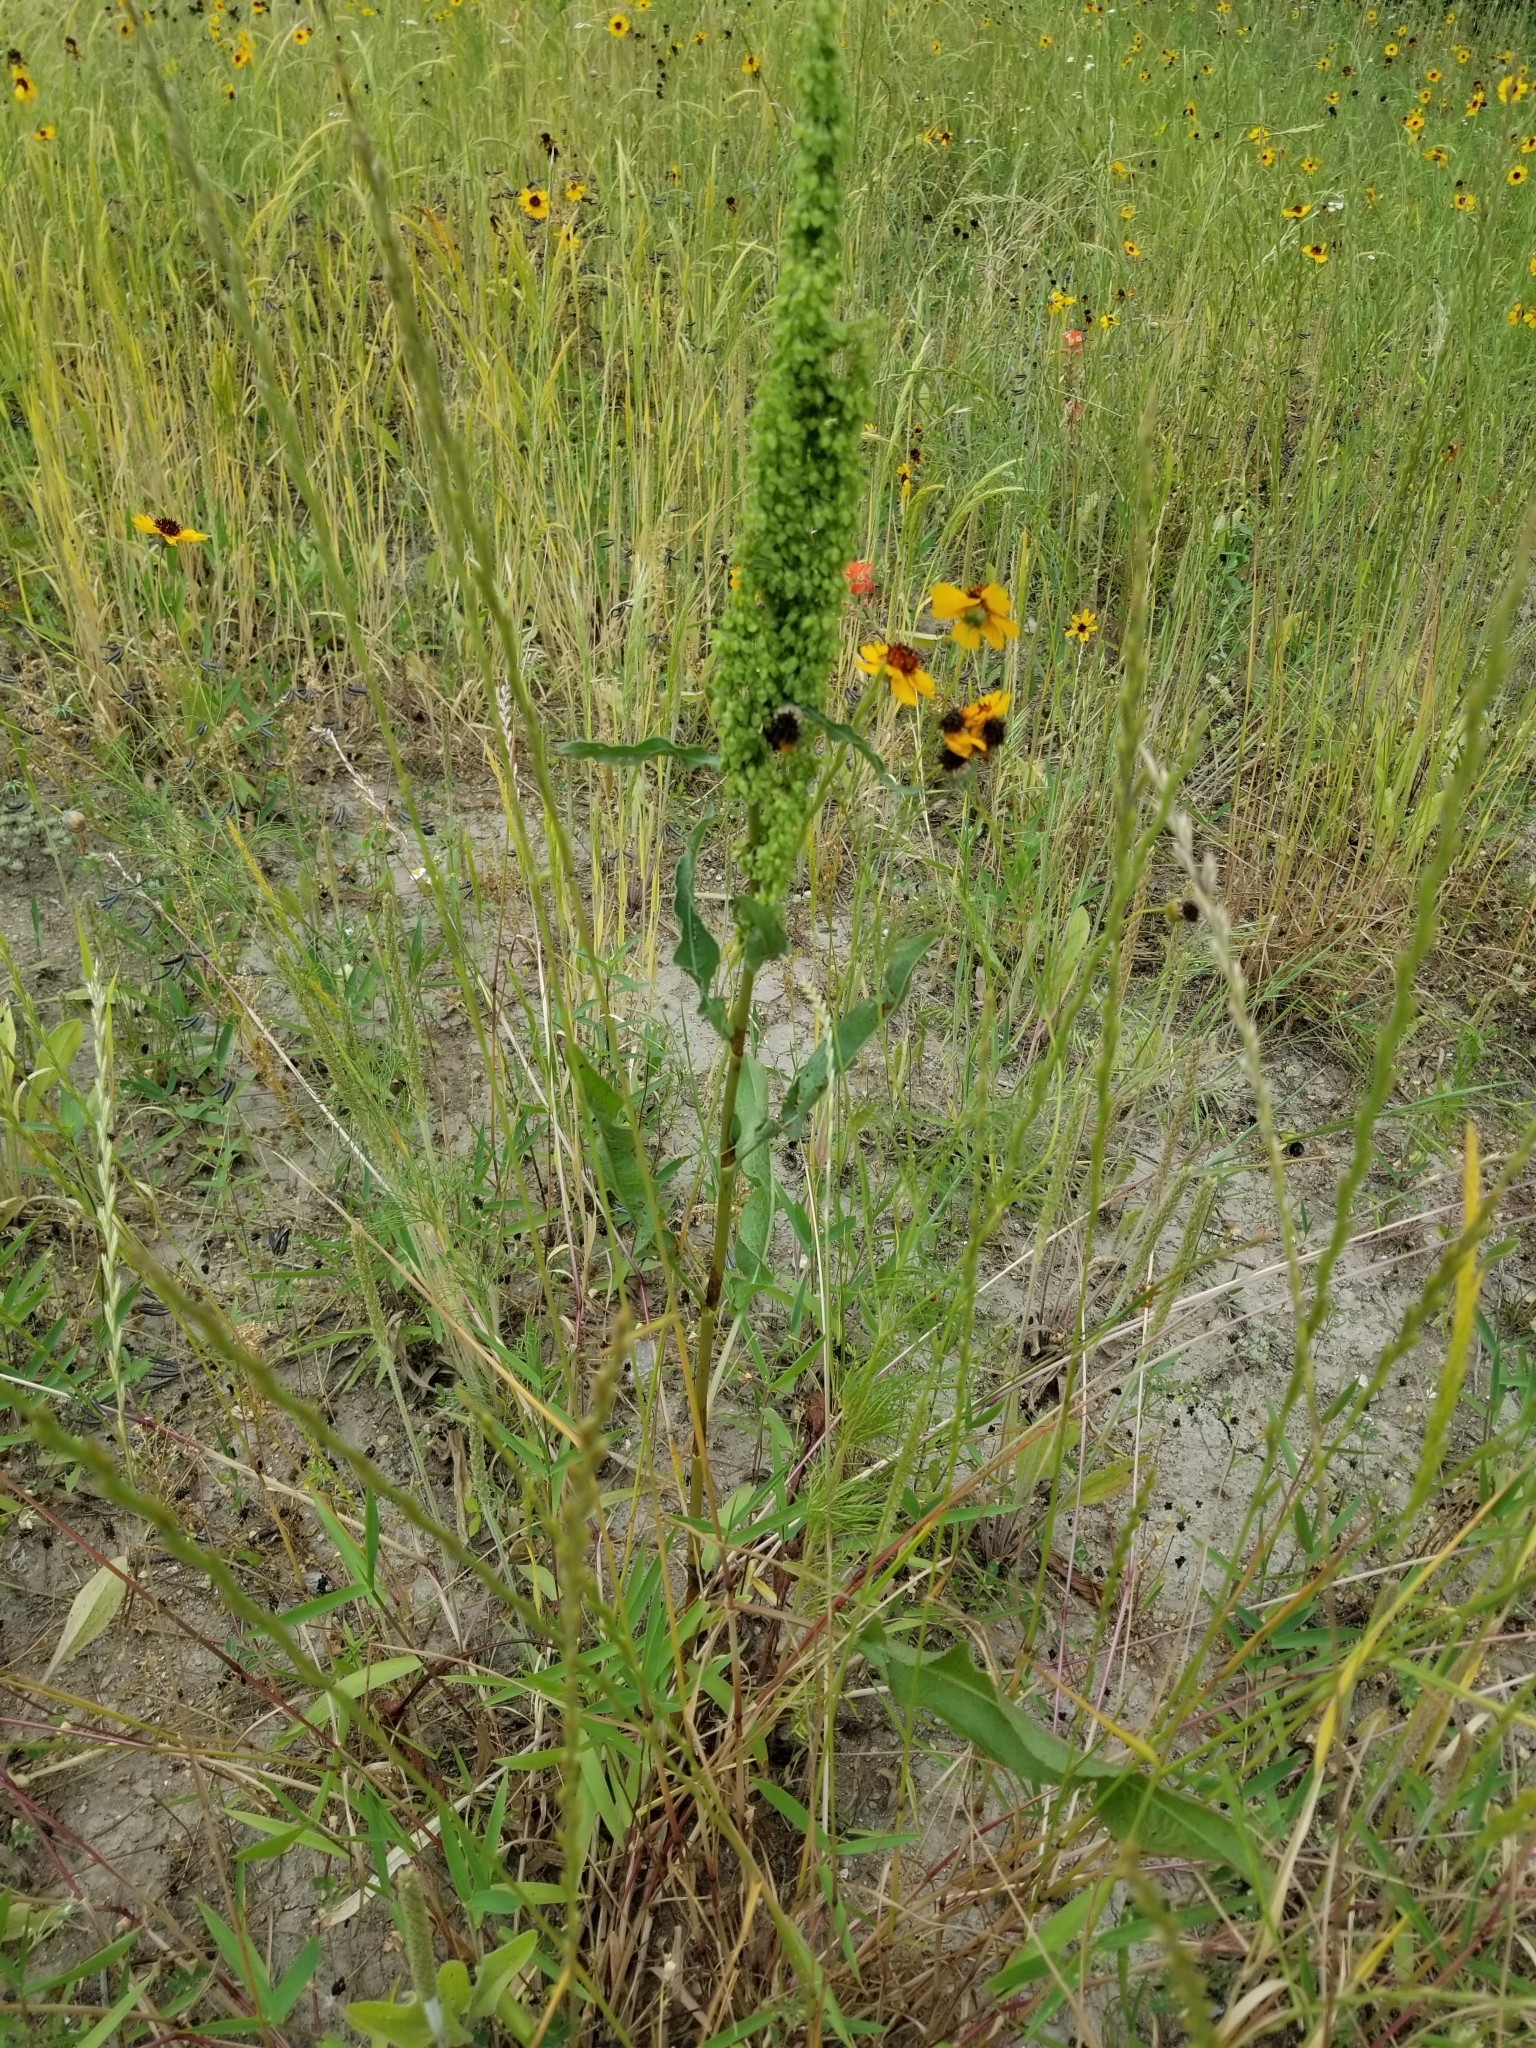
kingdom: Plantae
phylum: Tracheophyta
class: Magnoliopsida
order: Caryophyllales
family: Polygonaceae
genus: Rumex
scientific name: Rumex crispus
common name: Curled dock
